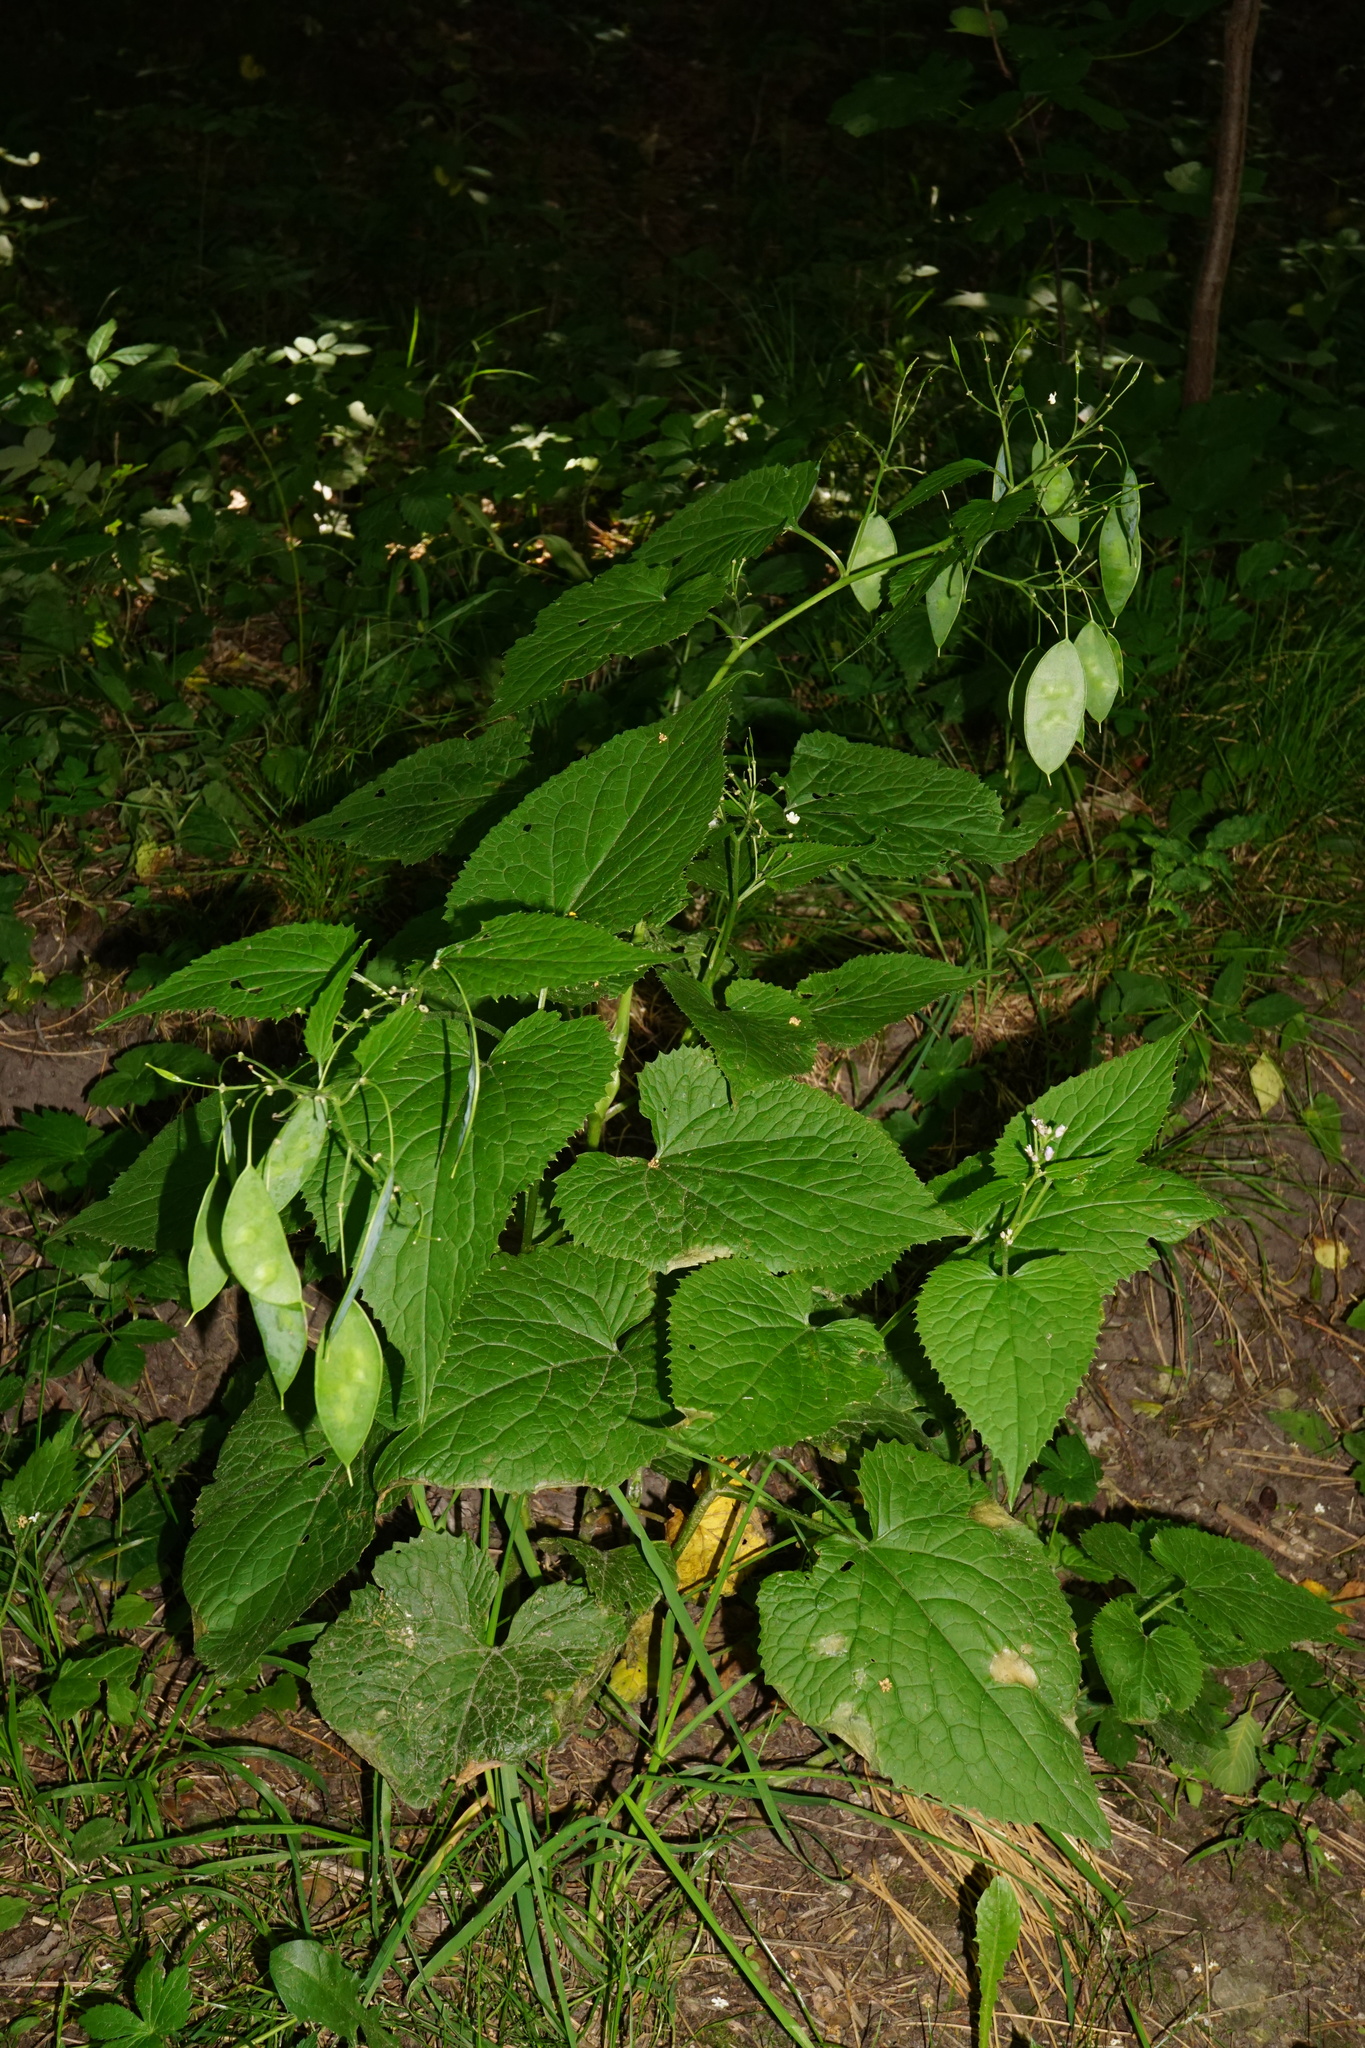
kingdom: Plantae
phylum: Tracheophyta
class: Magnoliopsida
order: Brassicales
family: Brassicaceae
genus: Lunaria
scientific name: Lunaria rediviva
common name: Perennial honesty
